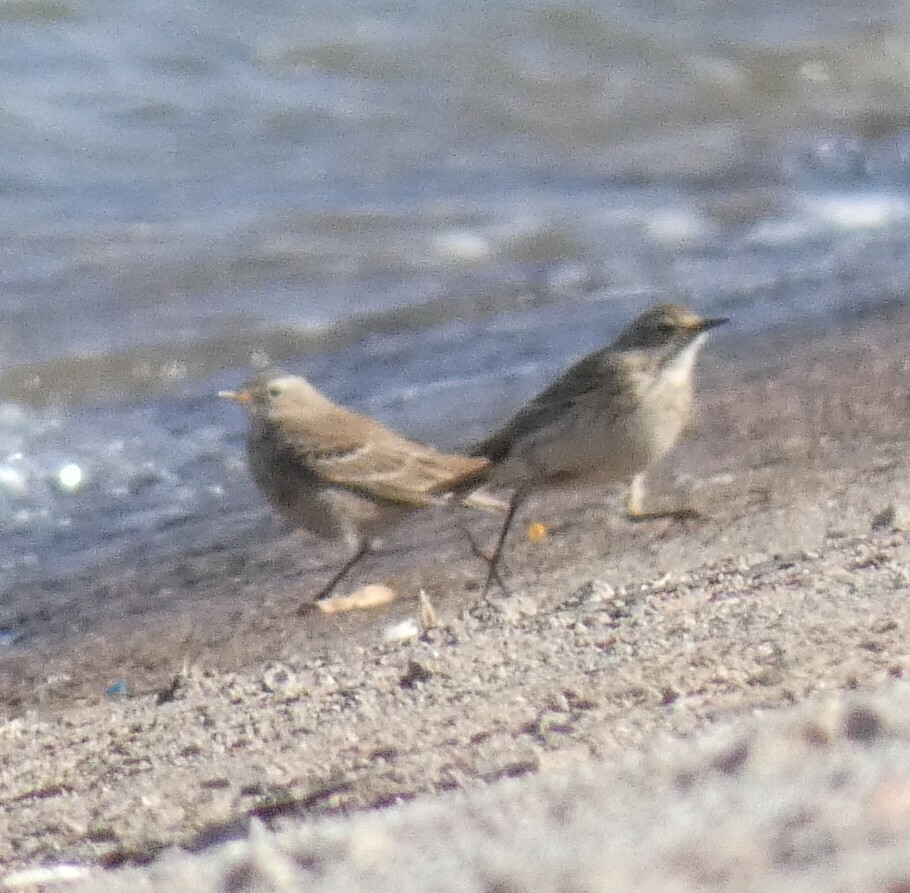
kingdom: Animalia
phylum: Chordata
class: Aves
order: Passeriformes
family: Motacillidae
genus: Anthus
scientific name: Anthus spinoletta
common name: Water pipit
